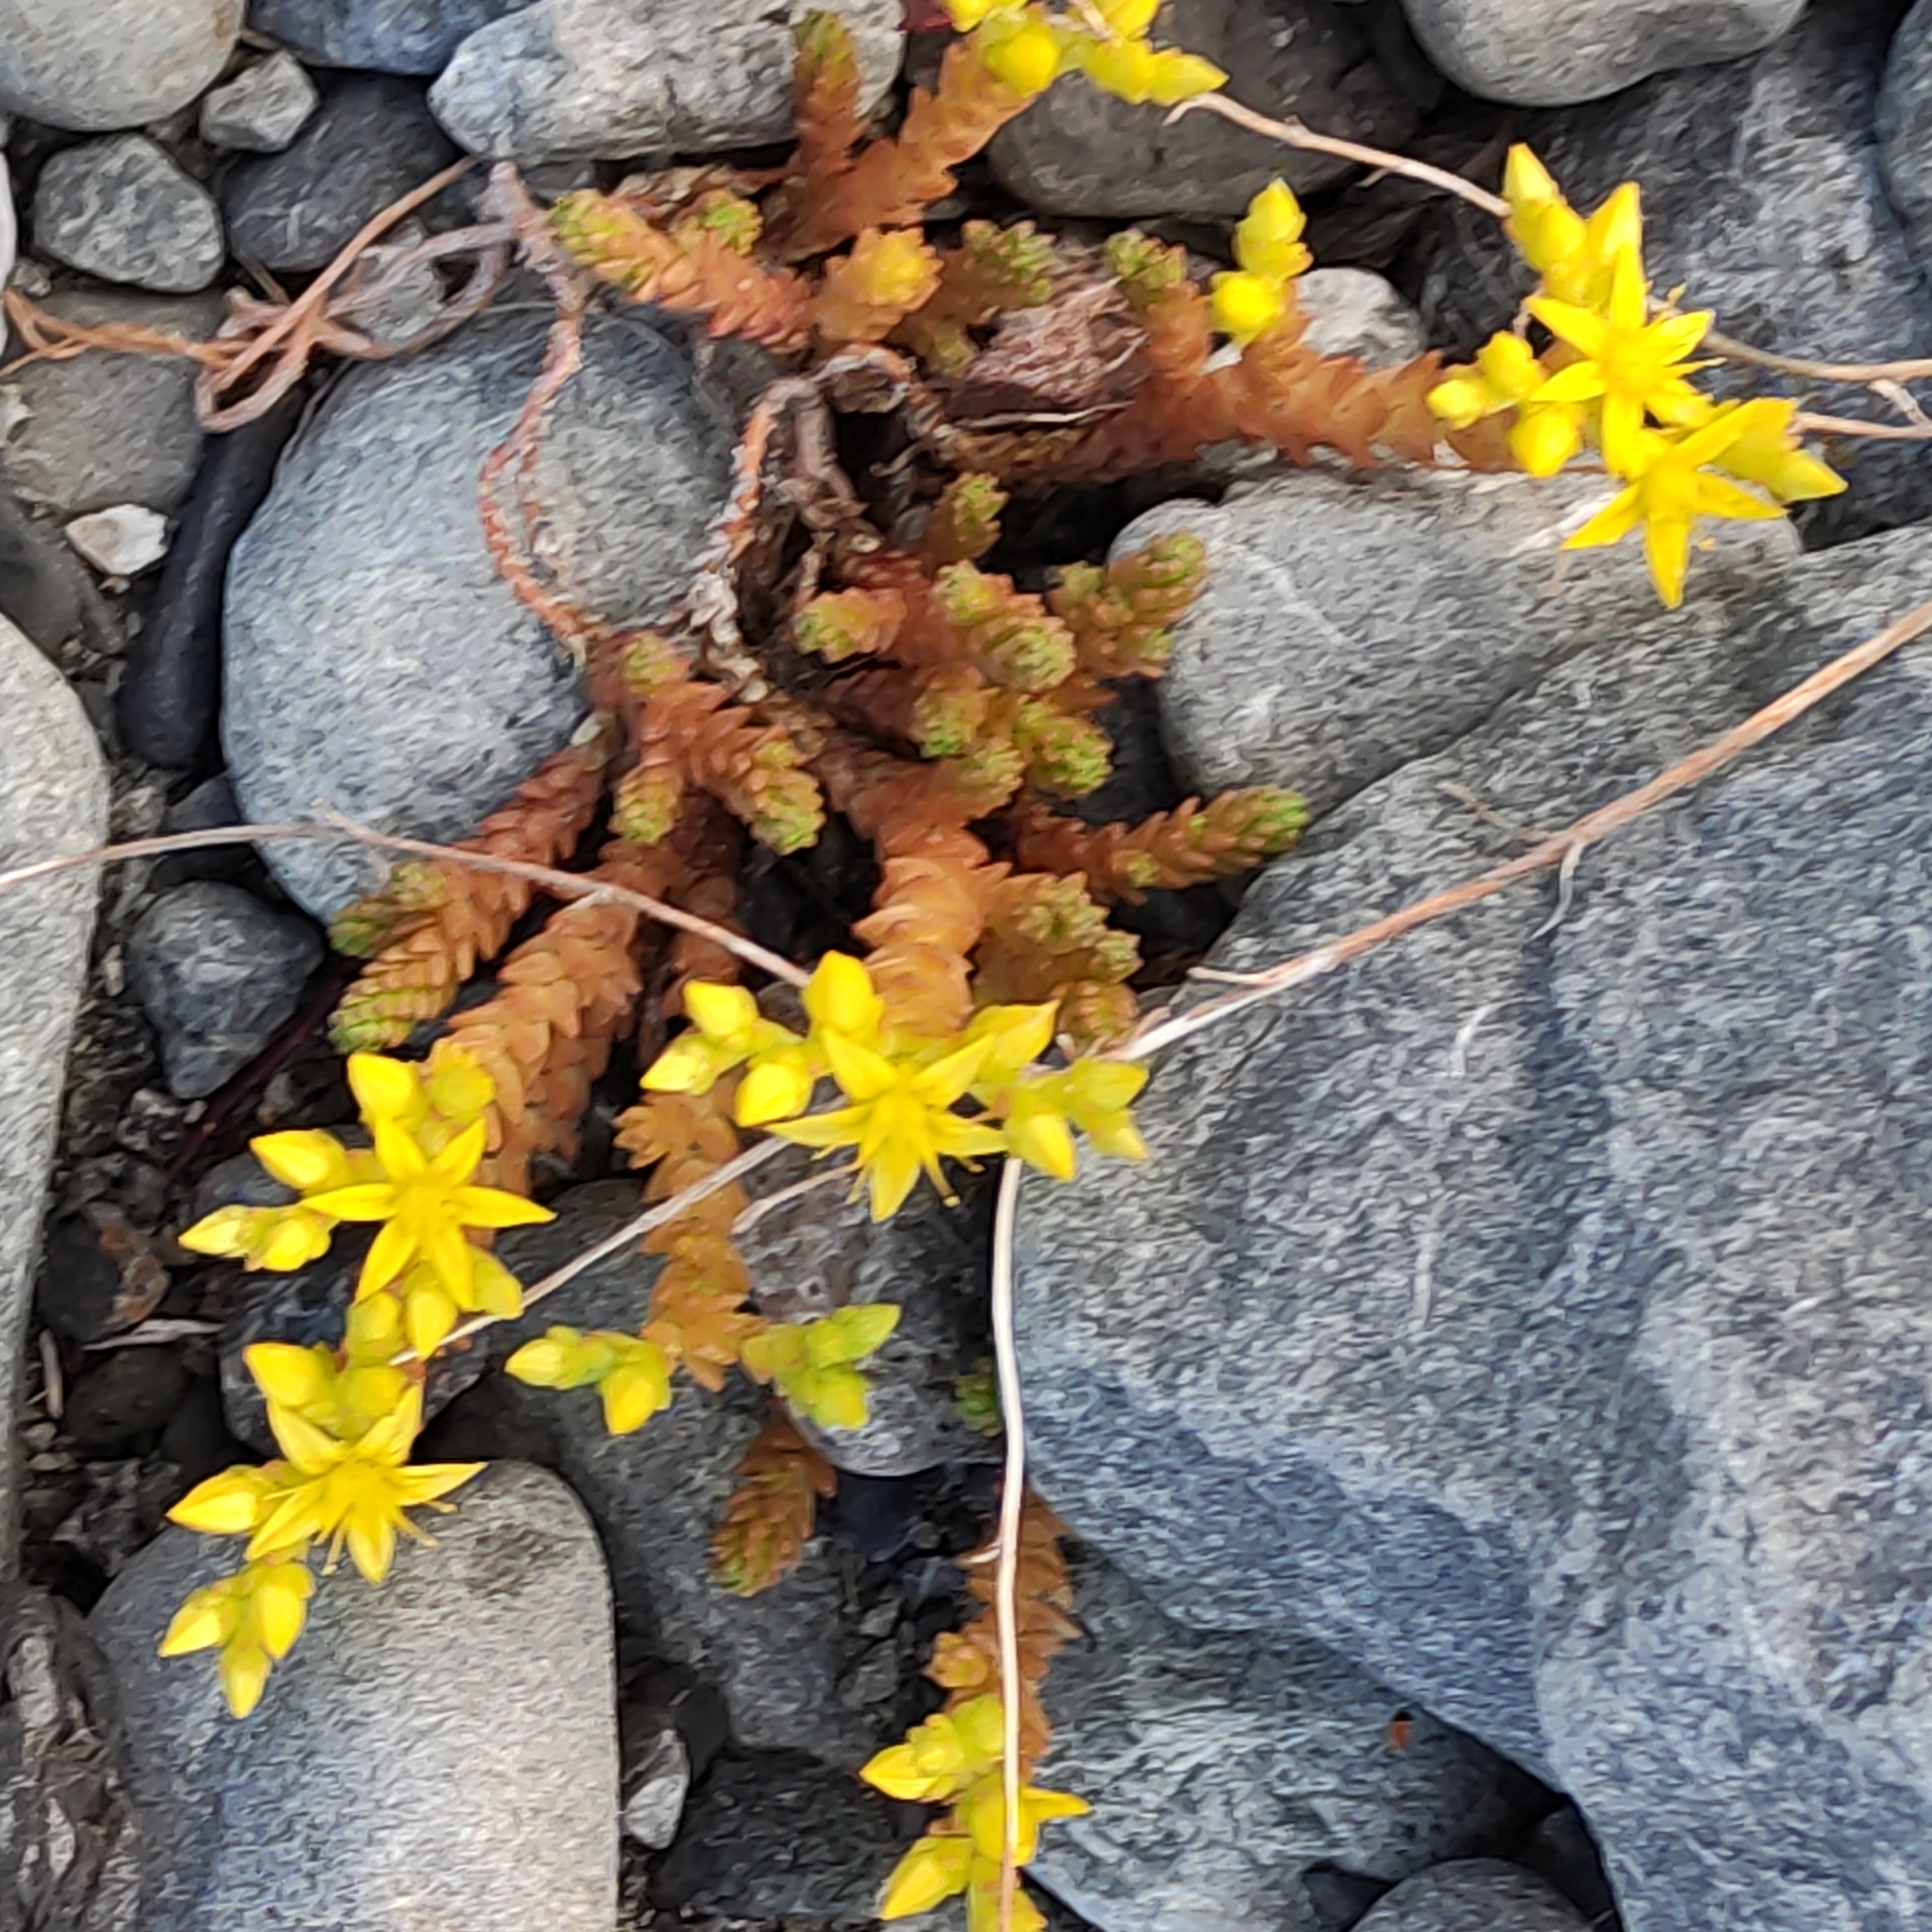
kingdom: Plantae
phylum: Tracheophyta
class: Magnoliopsida
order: Saxifragales
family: Crassulaceae
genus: Sedum
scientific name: Sedum acre
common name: Biting stonecrop
